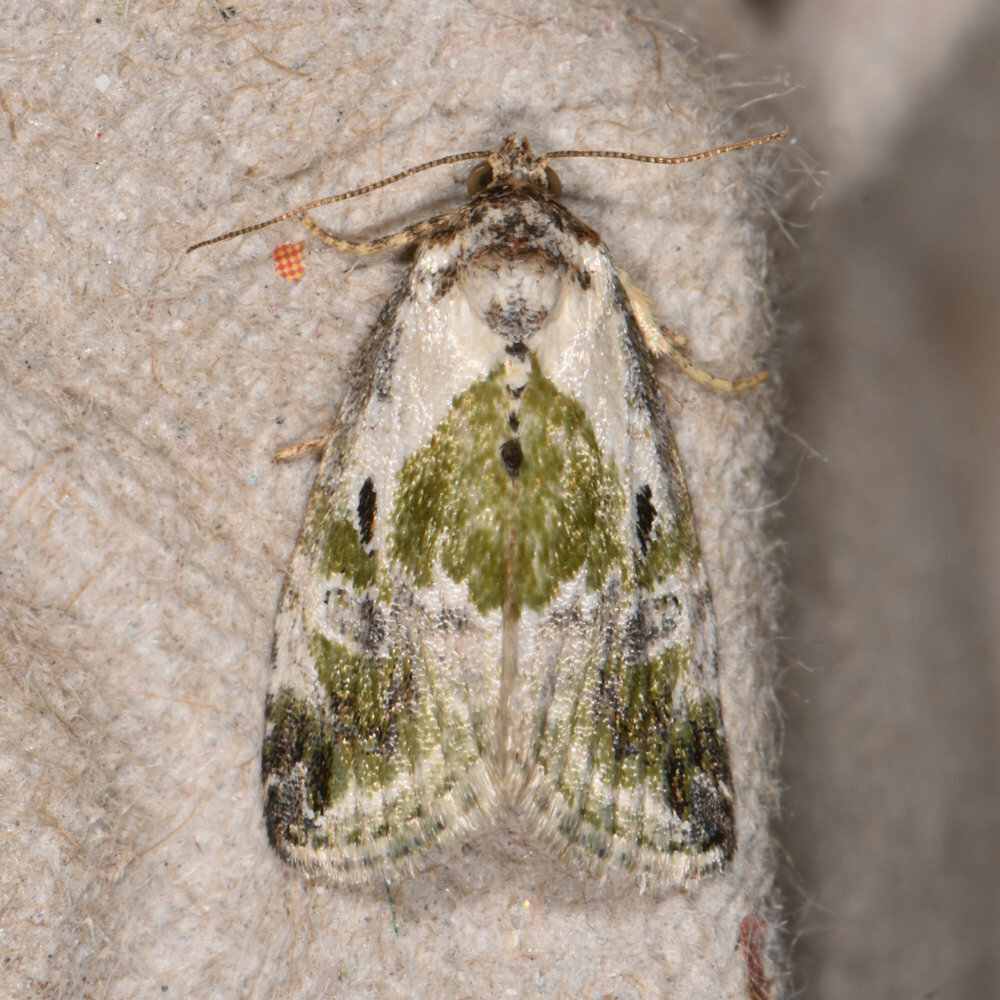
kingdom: Animalia
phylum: Arthropoda
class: Insecta
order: Lepidoptera
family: Noctuidae
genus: Maliattha
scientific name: Maliattha synochitis
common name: Black-dotted glyph
